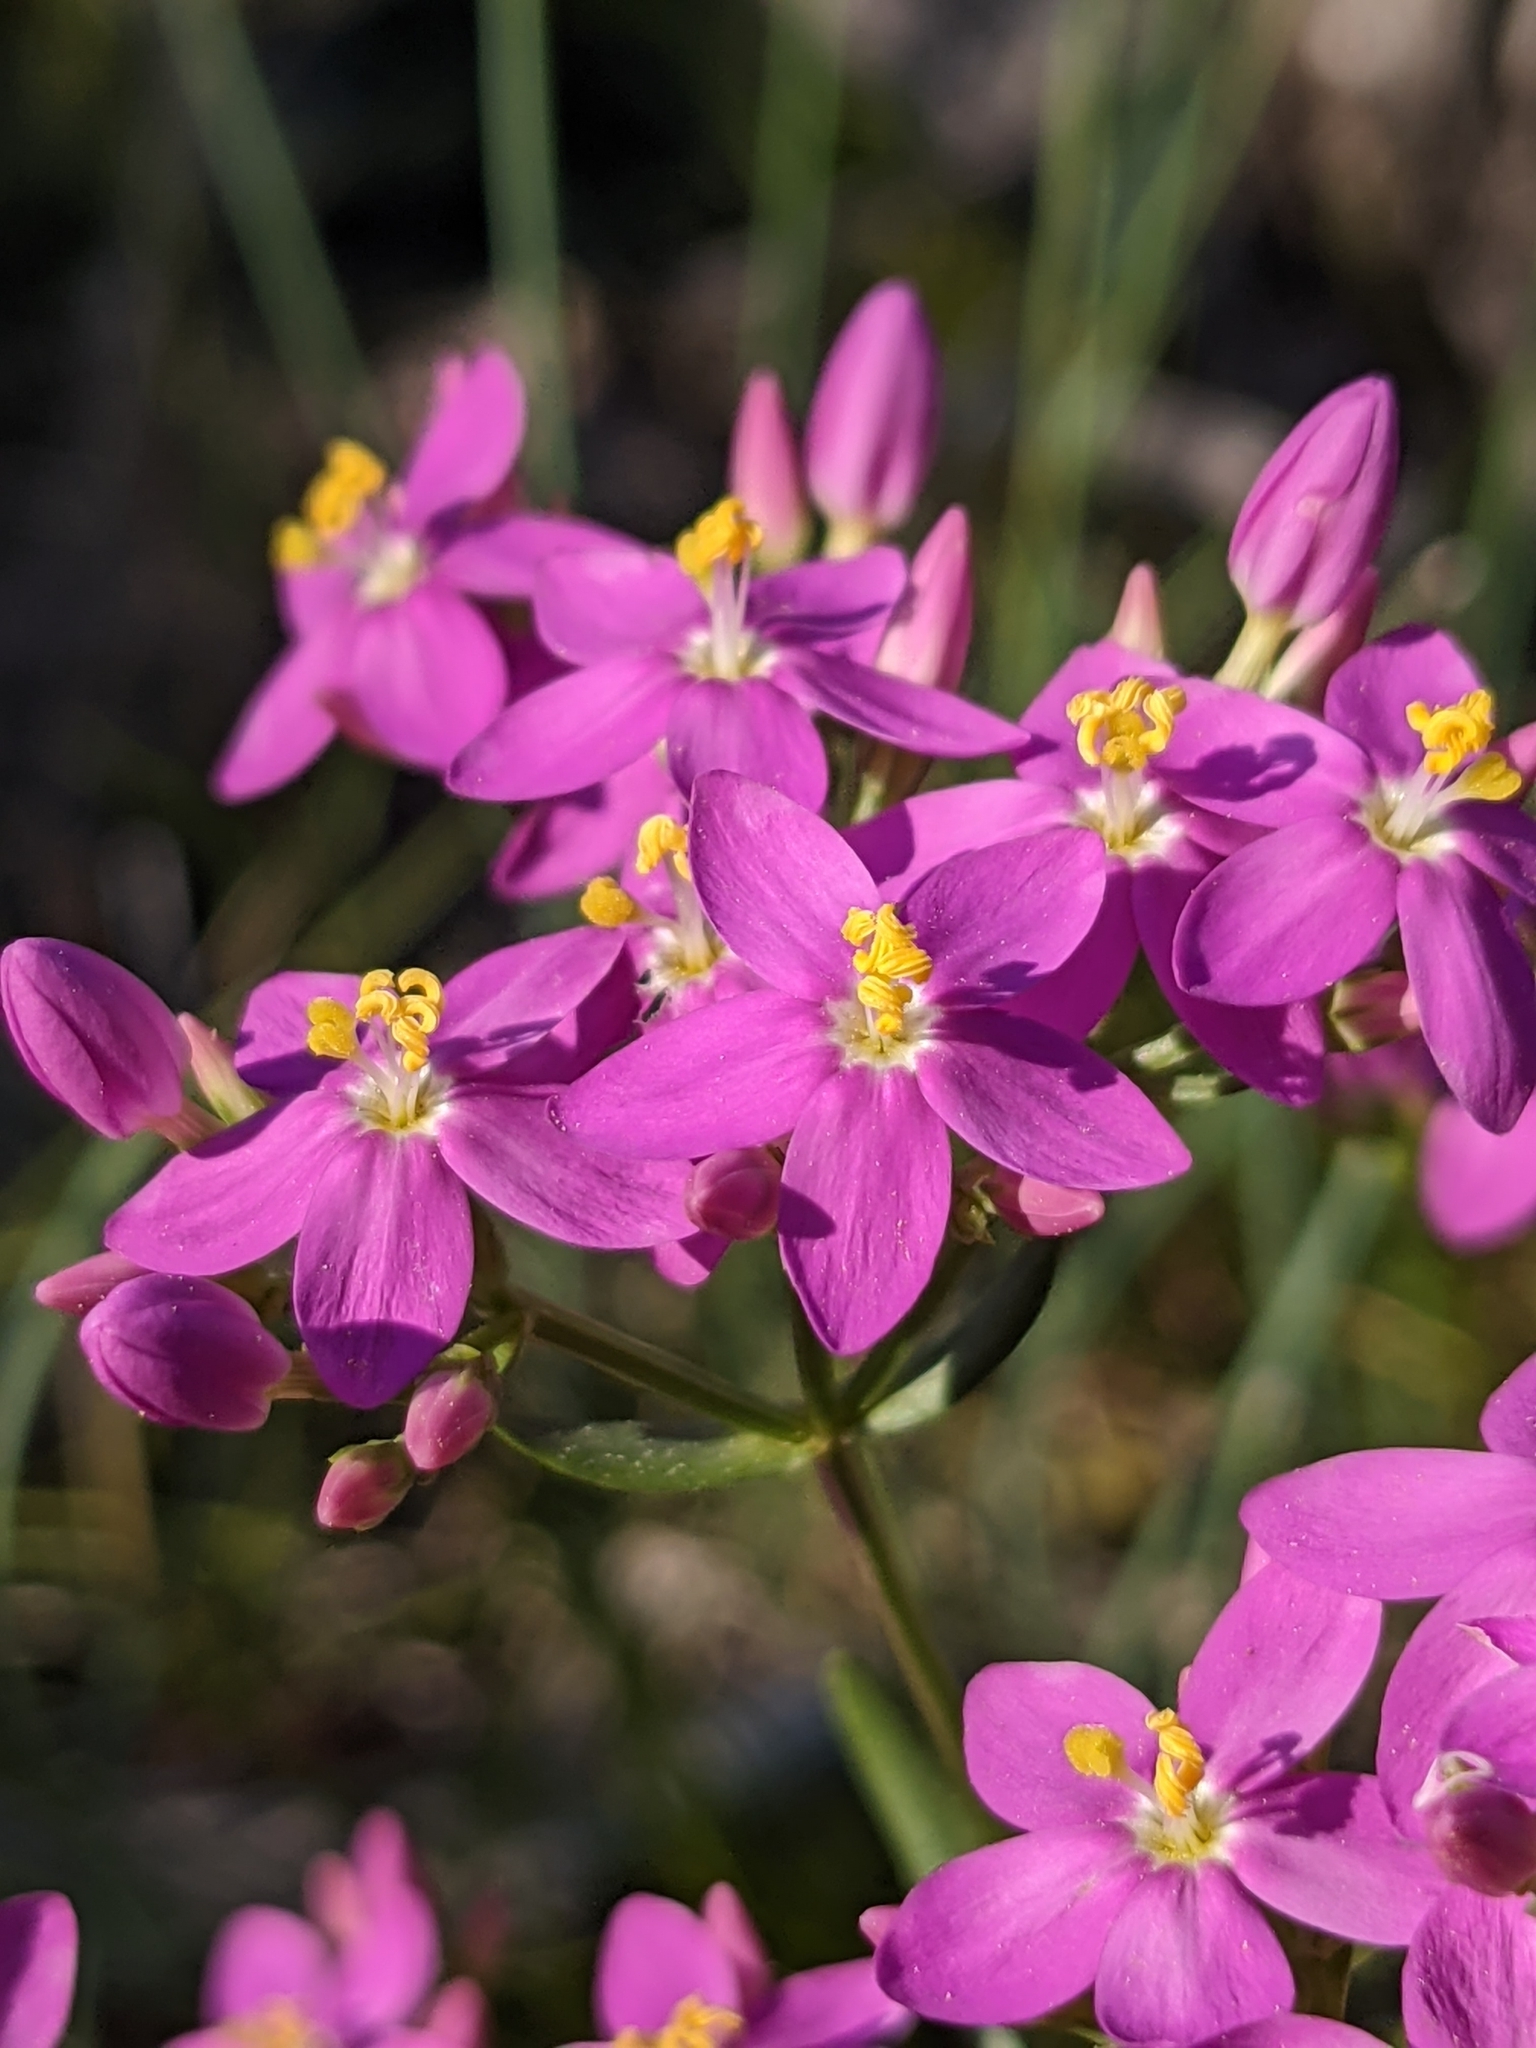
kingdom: Plantae
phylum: Tracheophyta
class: Magnoliopsida
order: Gentianales
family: Gentianaceae
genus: Centaurium
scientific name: Centaurium erythraea
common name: Common centaury
